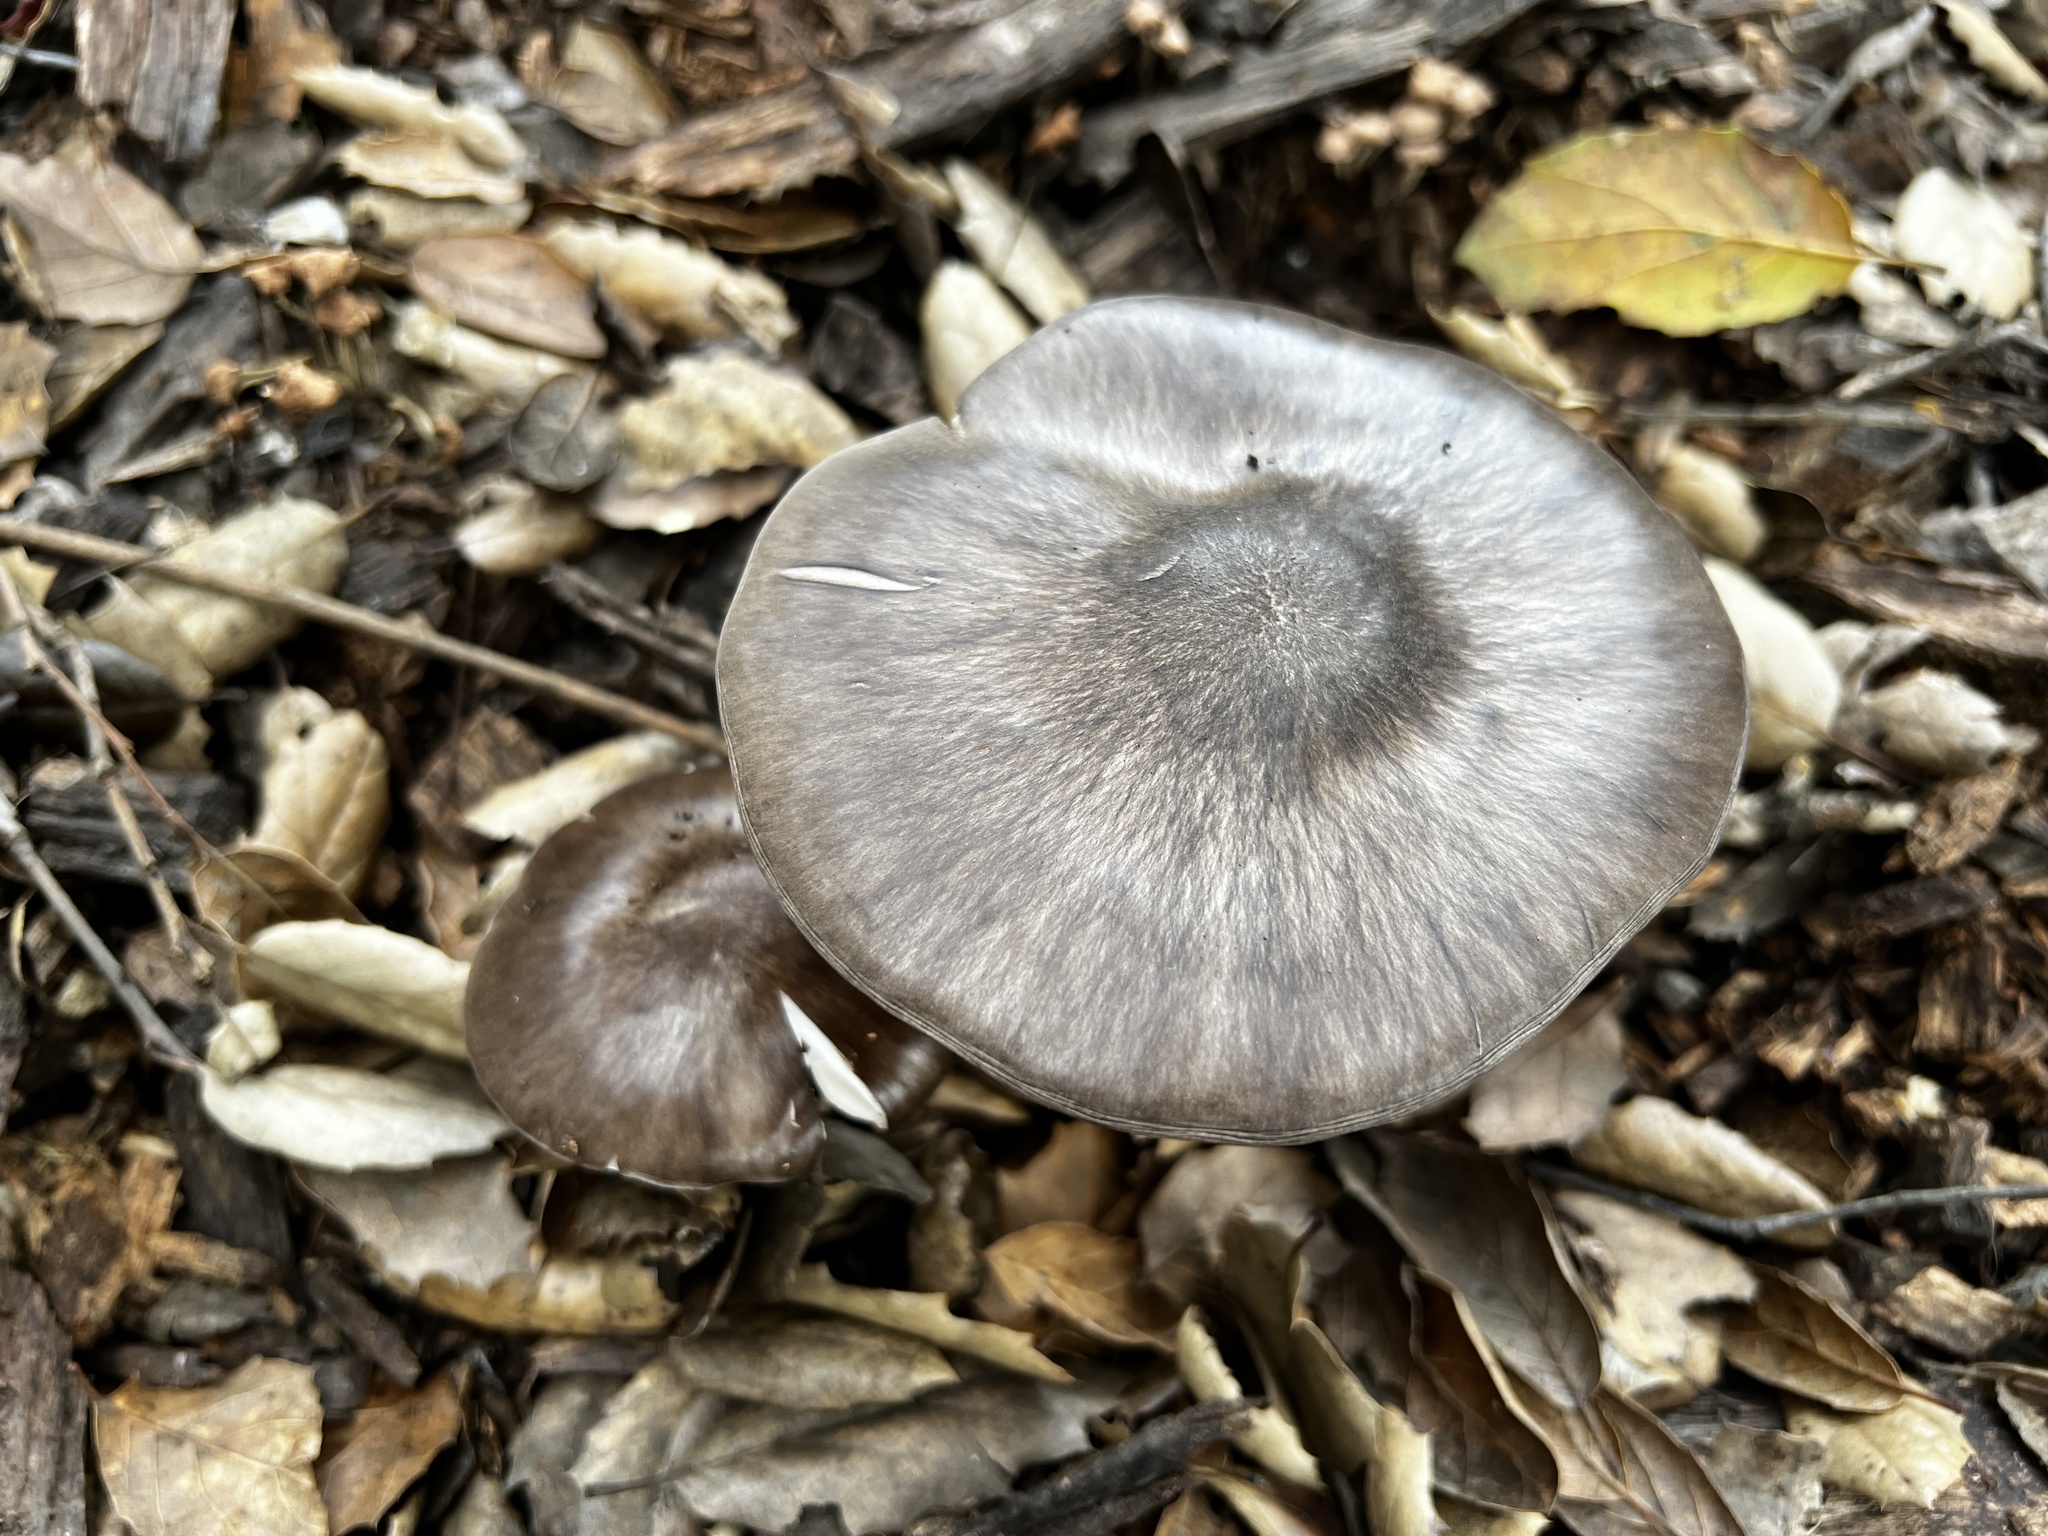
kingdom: Fungi
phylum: Basidiomycota
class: Agaricomycetes
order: Agaricales
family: Pluteaceae
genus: Pluteus
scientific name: Pluteus exilis
